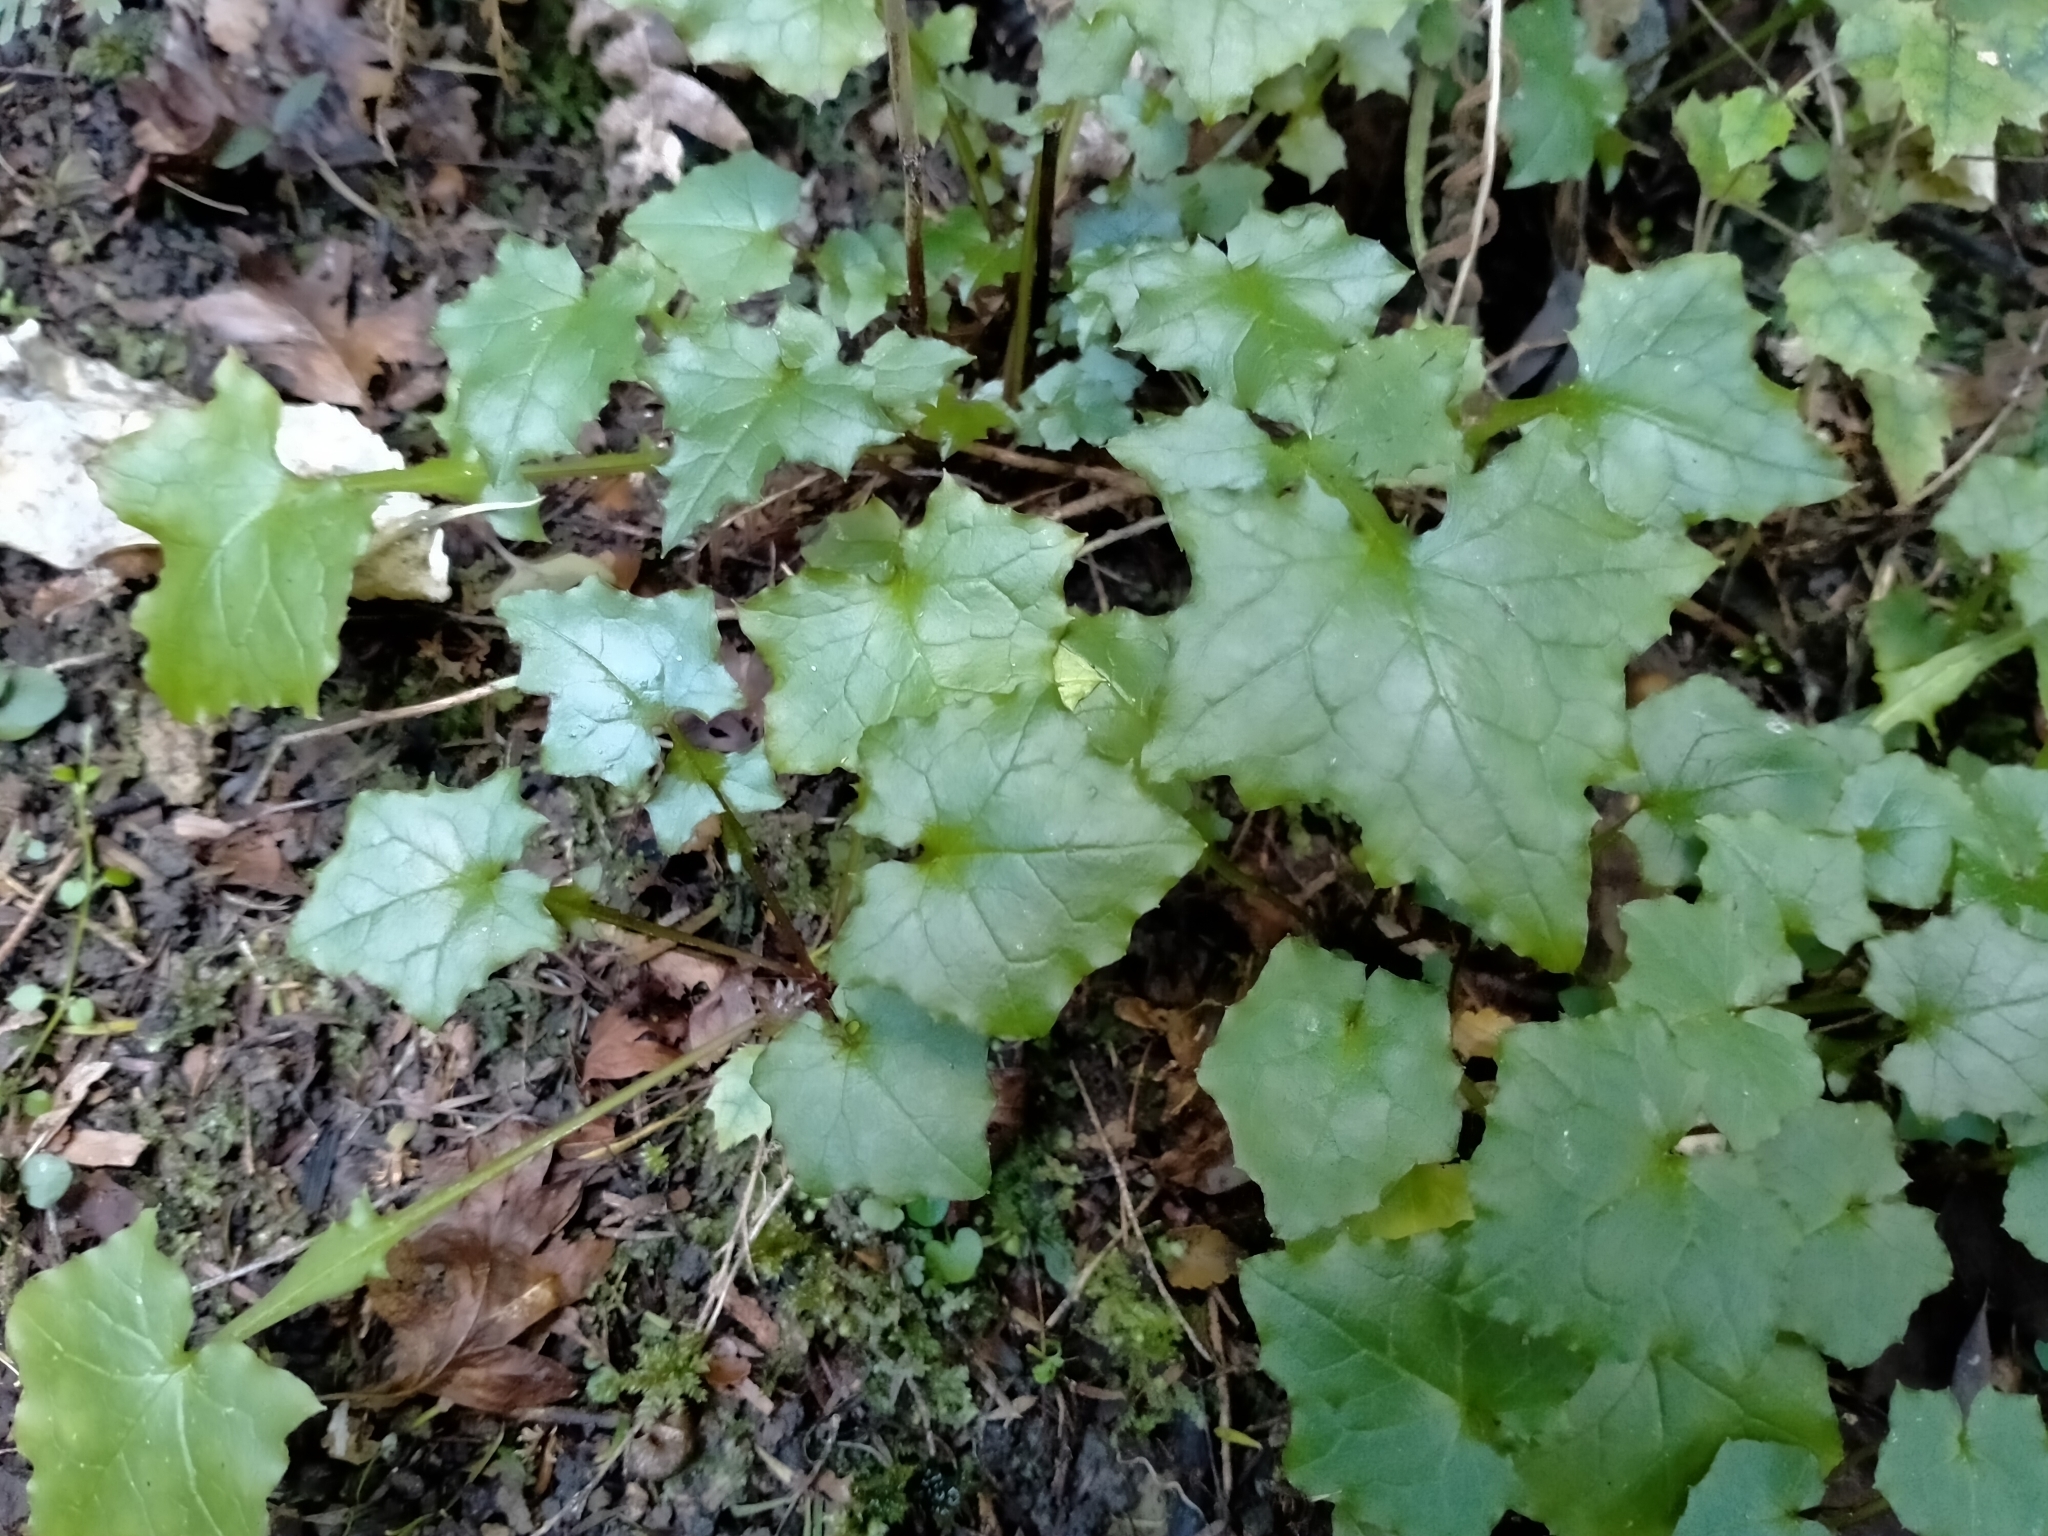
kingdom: Plantae
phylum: Tracheophyta
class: Magnoliopsida
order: Asterales
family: Asteraceae
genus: Mycelis
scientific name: Mycelis muralis
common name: Wall lettuce
